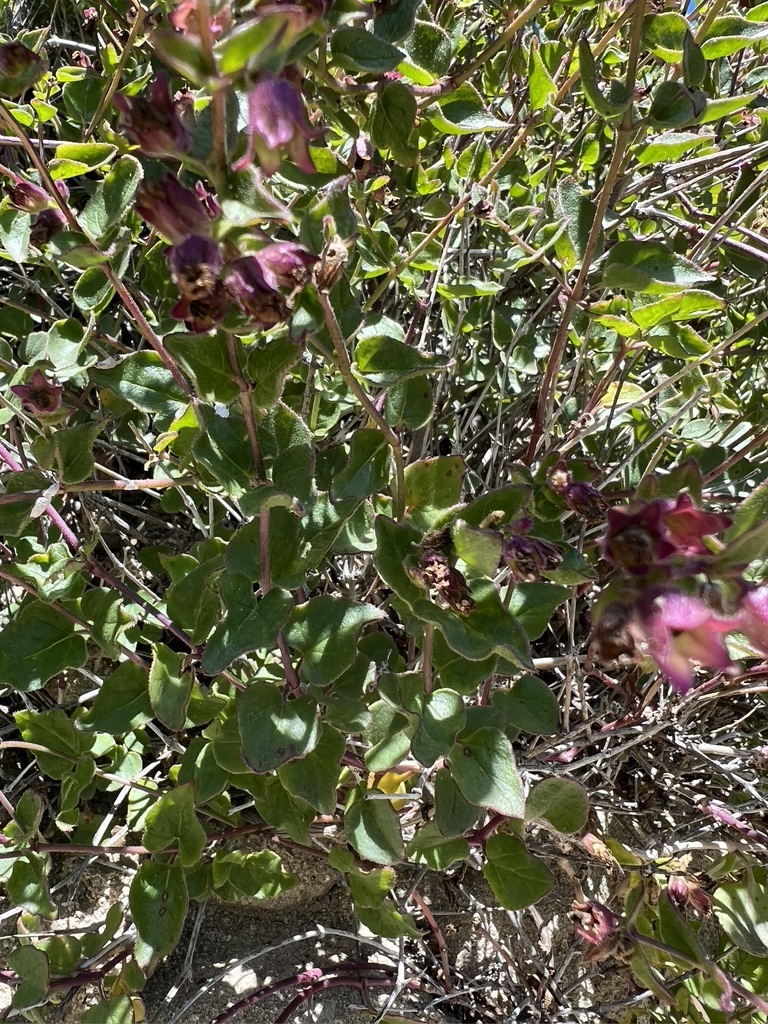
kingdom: Plantae
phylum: Tracheophyta
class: Magnoliopsida
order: Caryophyllales
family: Nyctaginaceae
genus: Mirabilis
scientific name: Mirabilis laevis
